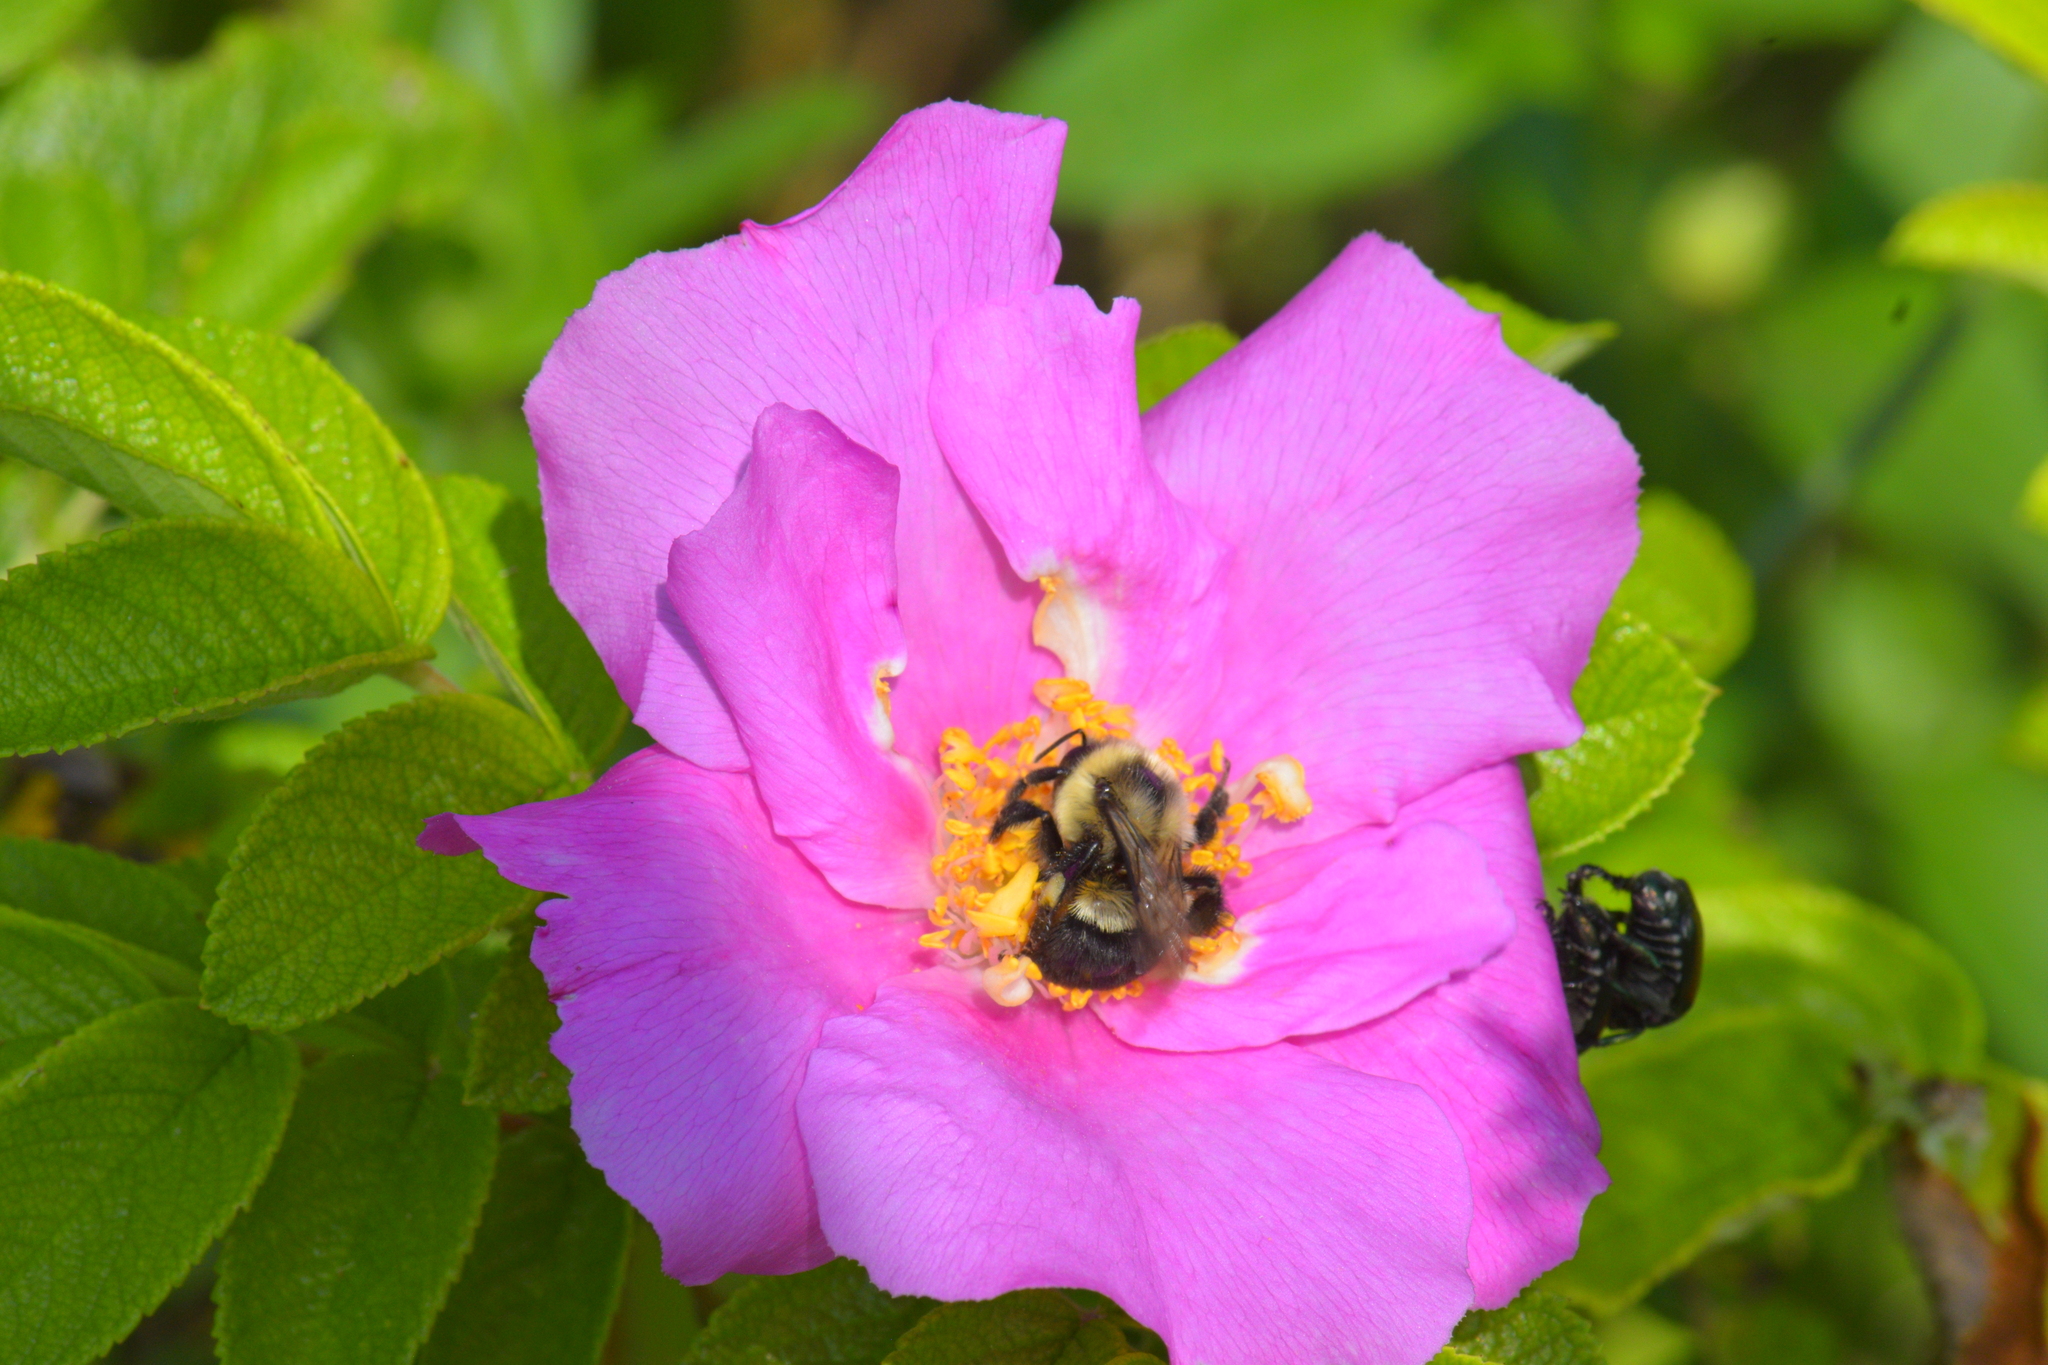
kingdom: Animalia
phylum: Arthropoda
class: Insecta
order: Hymenoptera
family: Apidae
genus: Bombus
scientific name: Bombus impatiens
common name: Common eastern bumble bee
